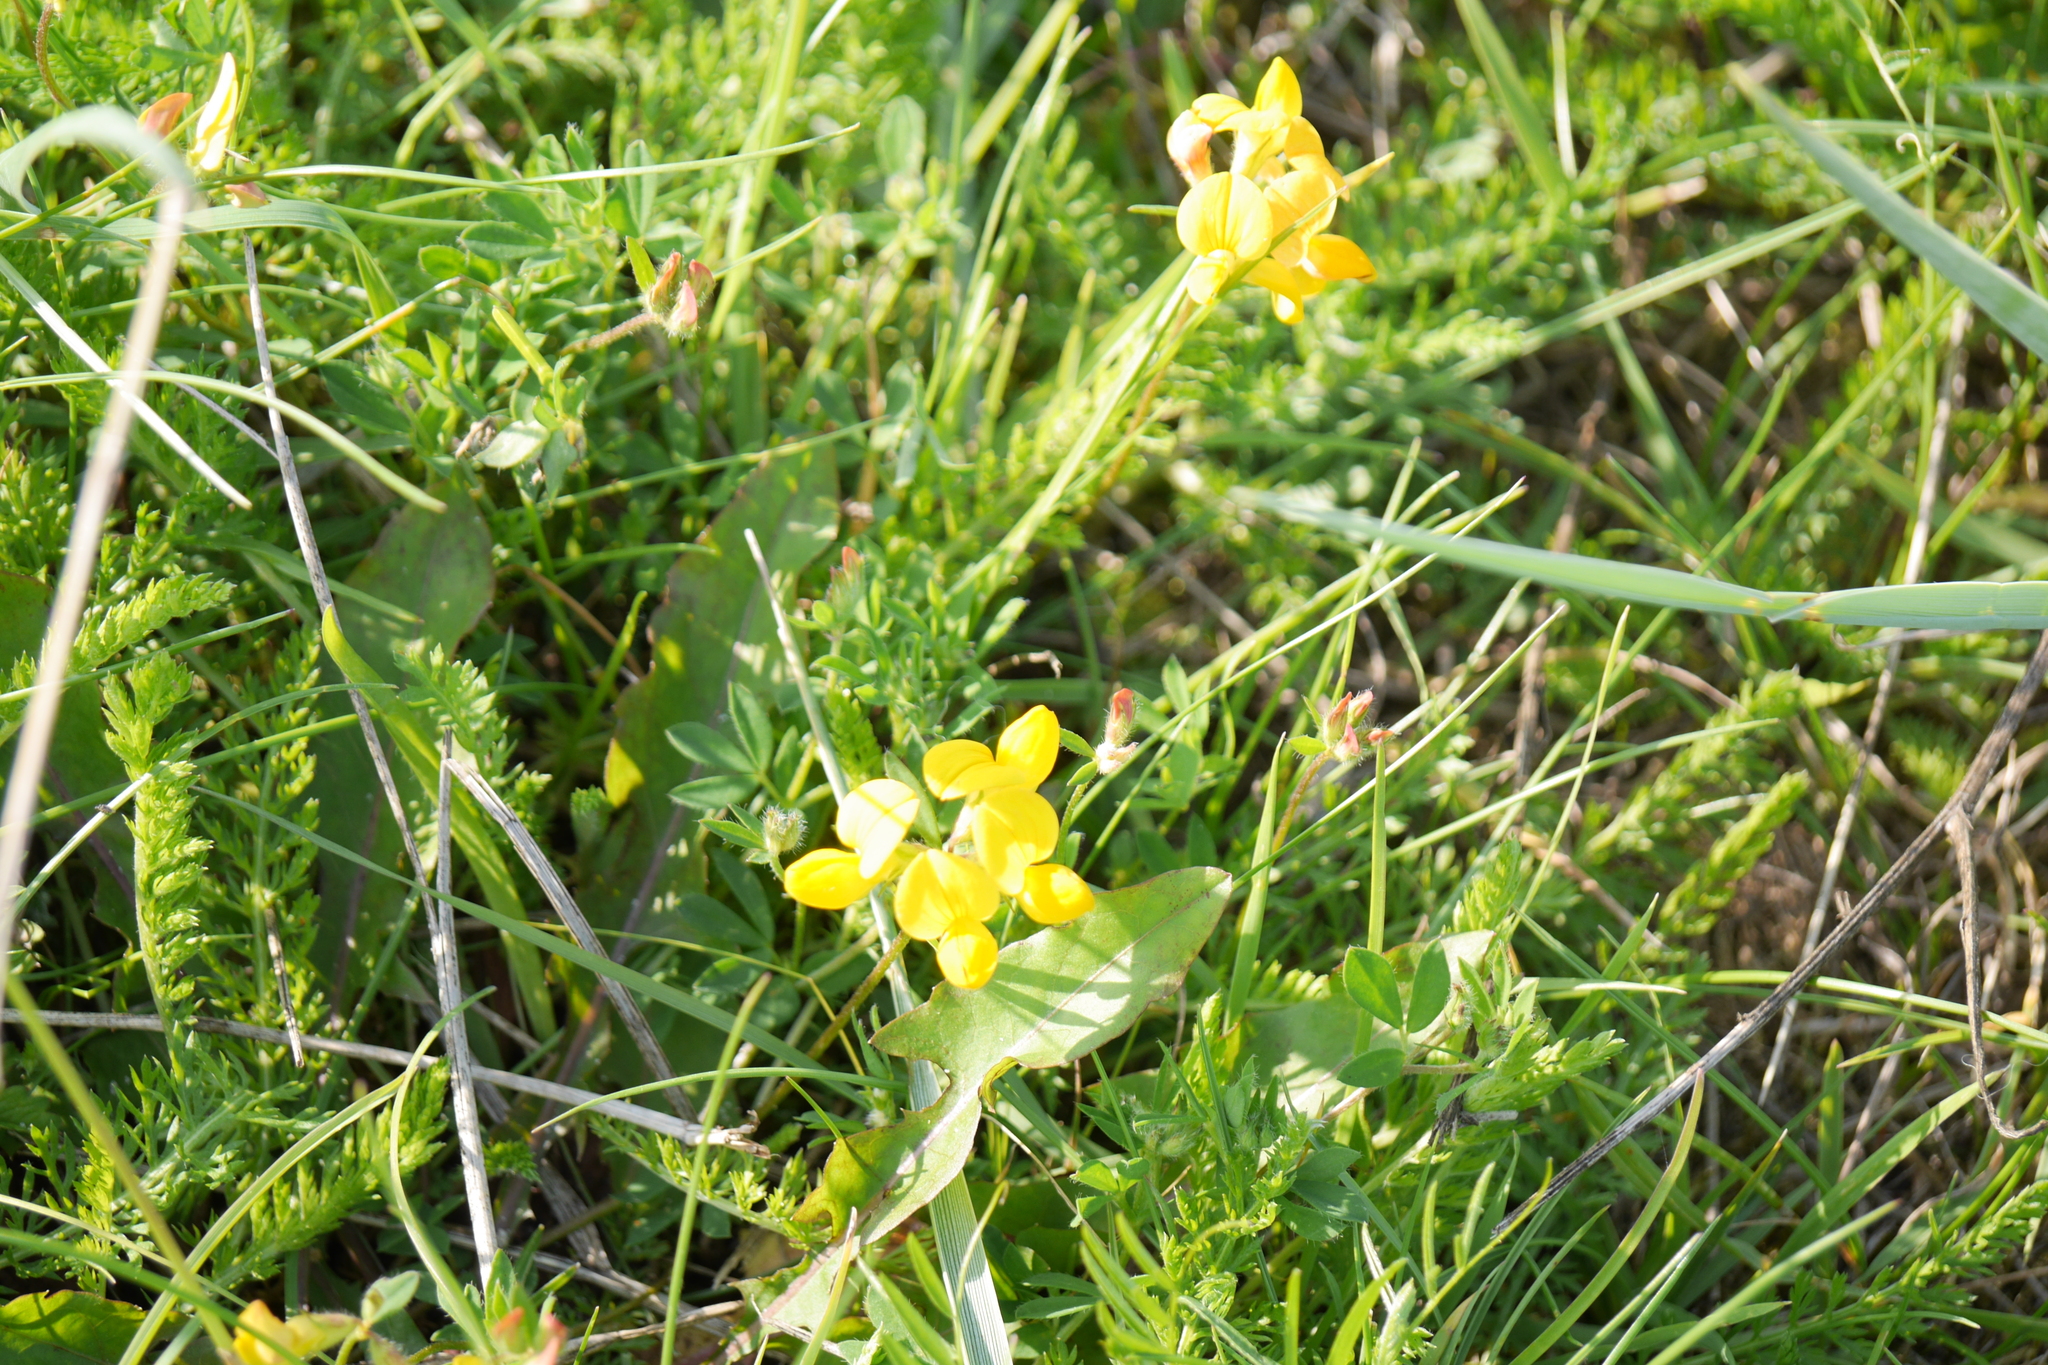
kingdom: Plantae
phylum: Tracheophyta
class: Magnoliopsida
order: Fabales
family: Fabaceae
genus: Lotus
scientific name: Lotus corniculatus
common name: Common bird's-foot-trefoil
